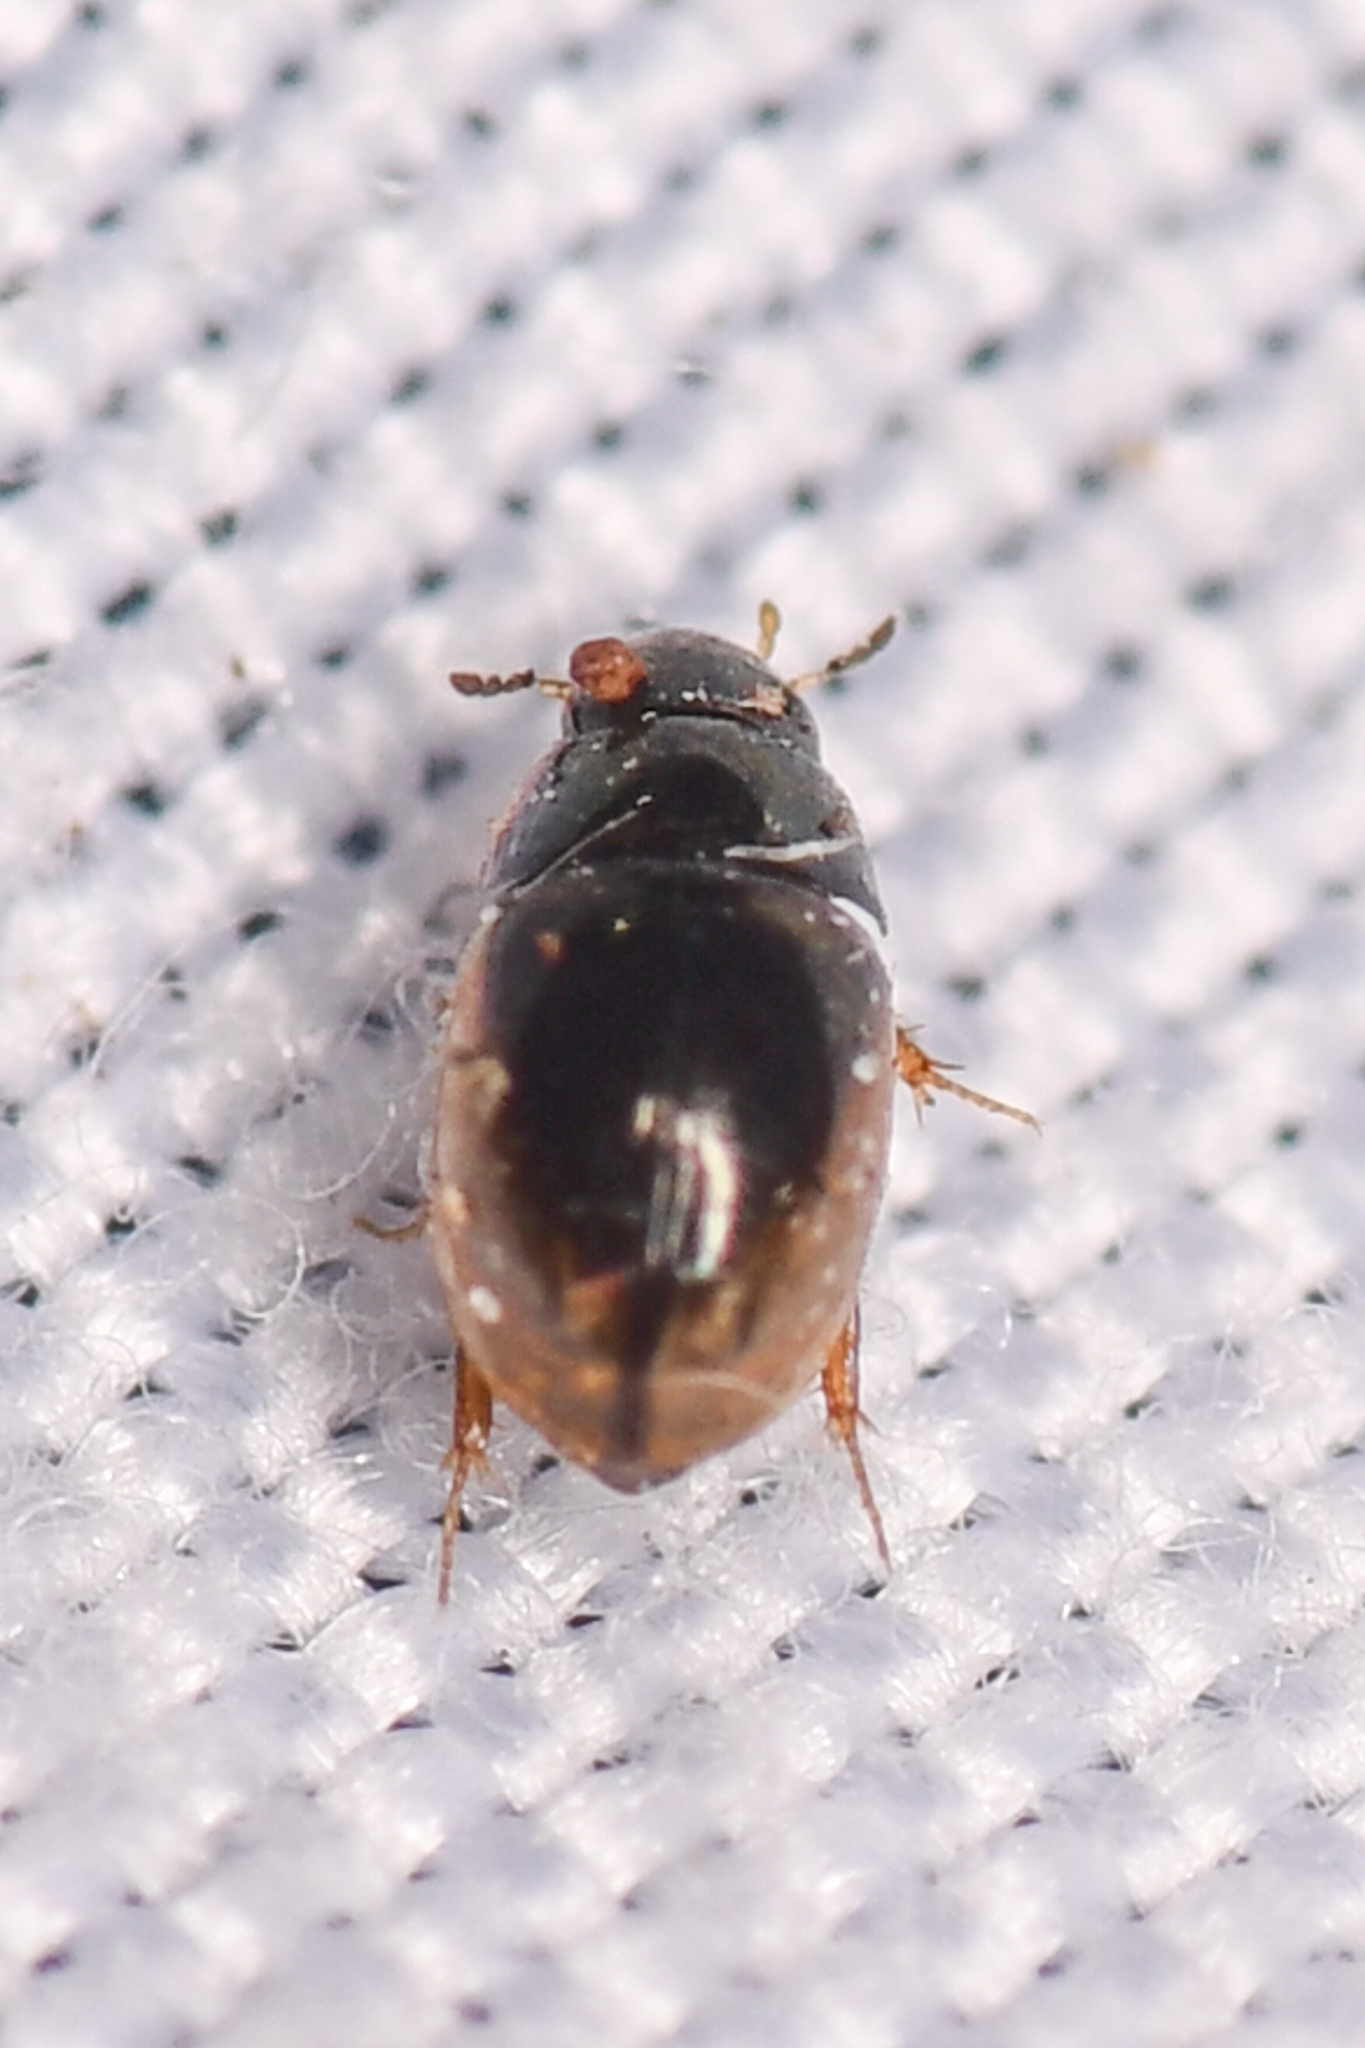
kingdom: Animalia
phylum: Arthropoda
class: Insecta
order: Coleoptera
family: Hydrophilidae
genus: Paracymus
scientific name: Paracymus indigens
